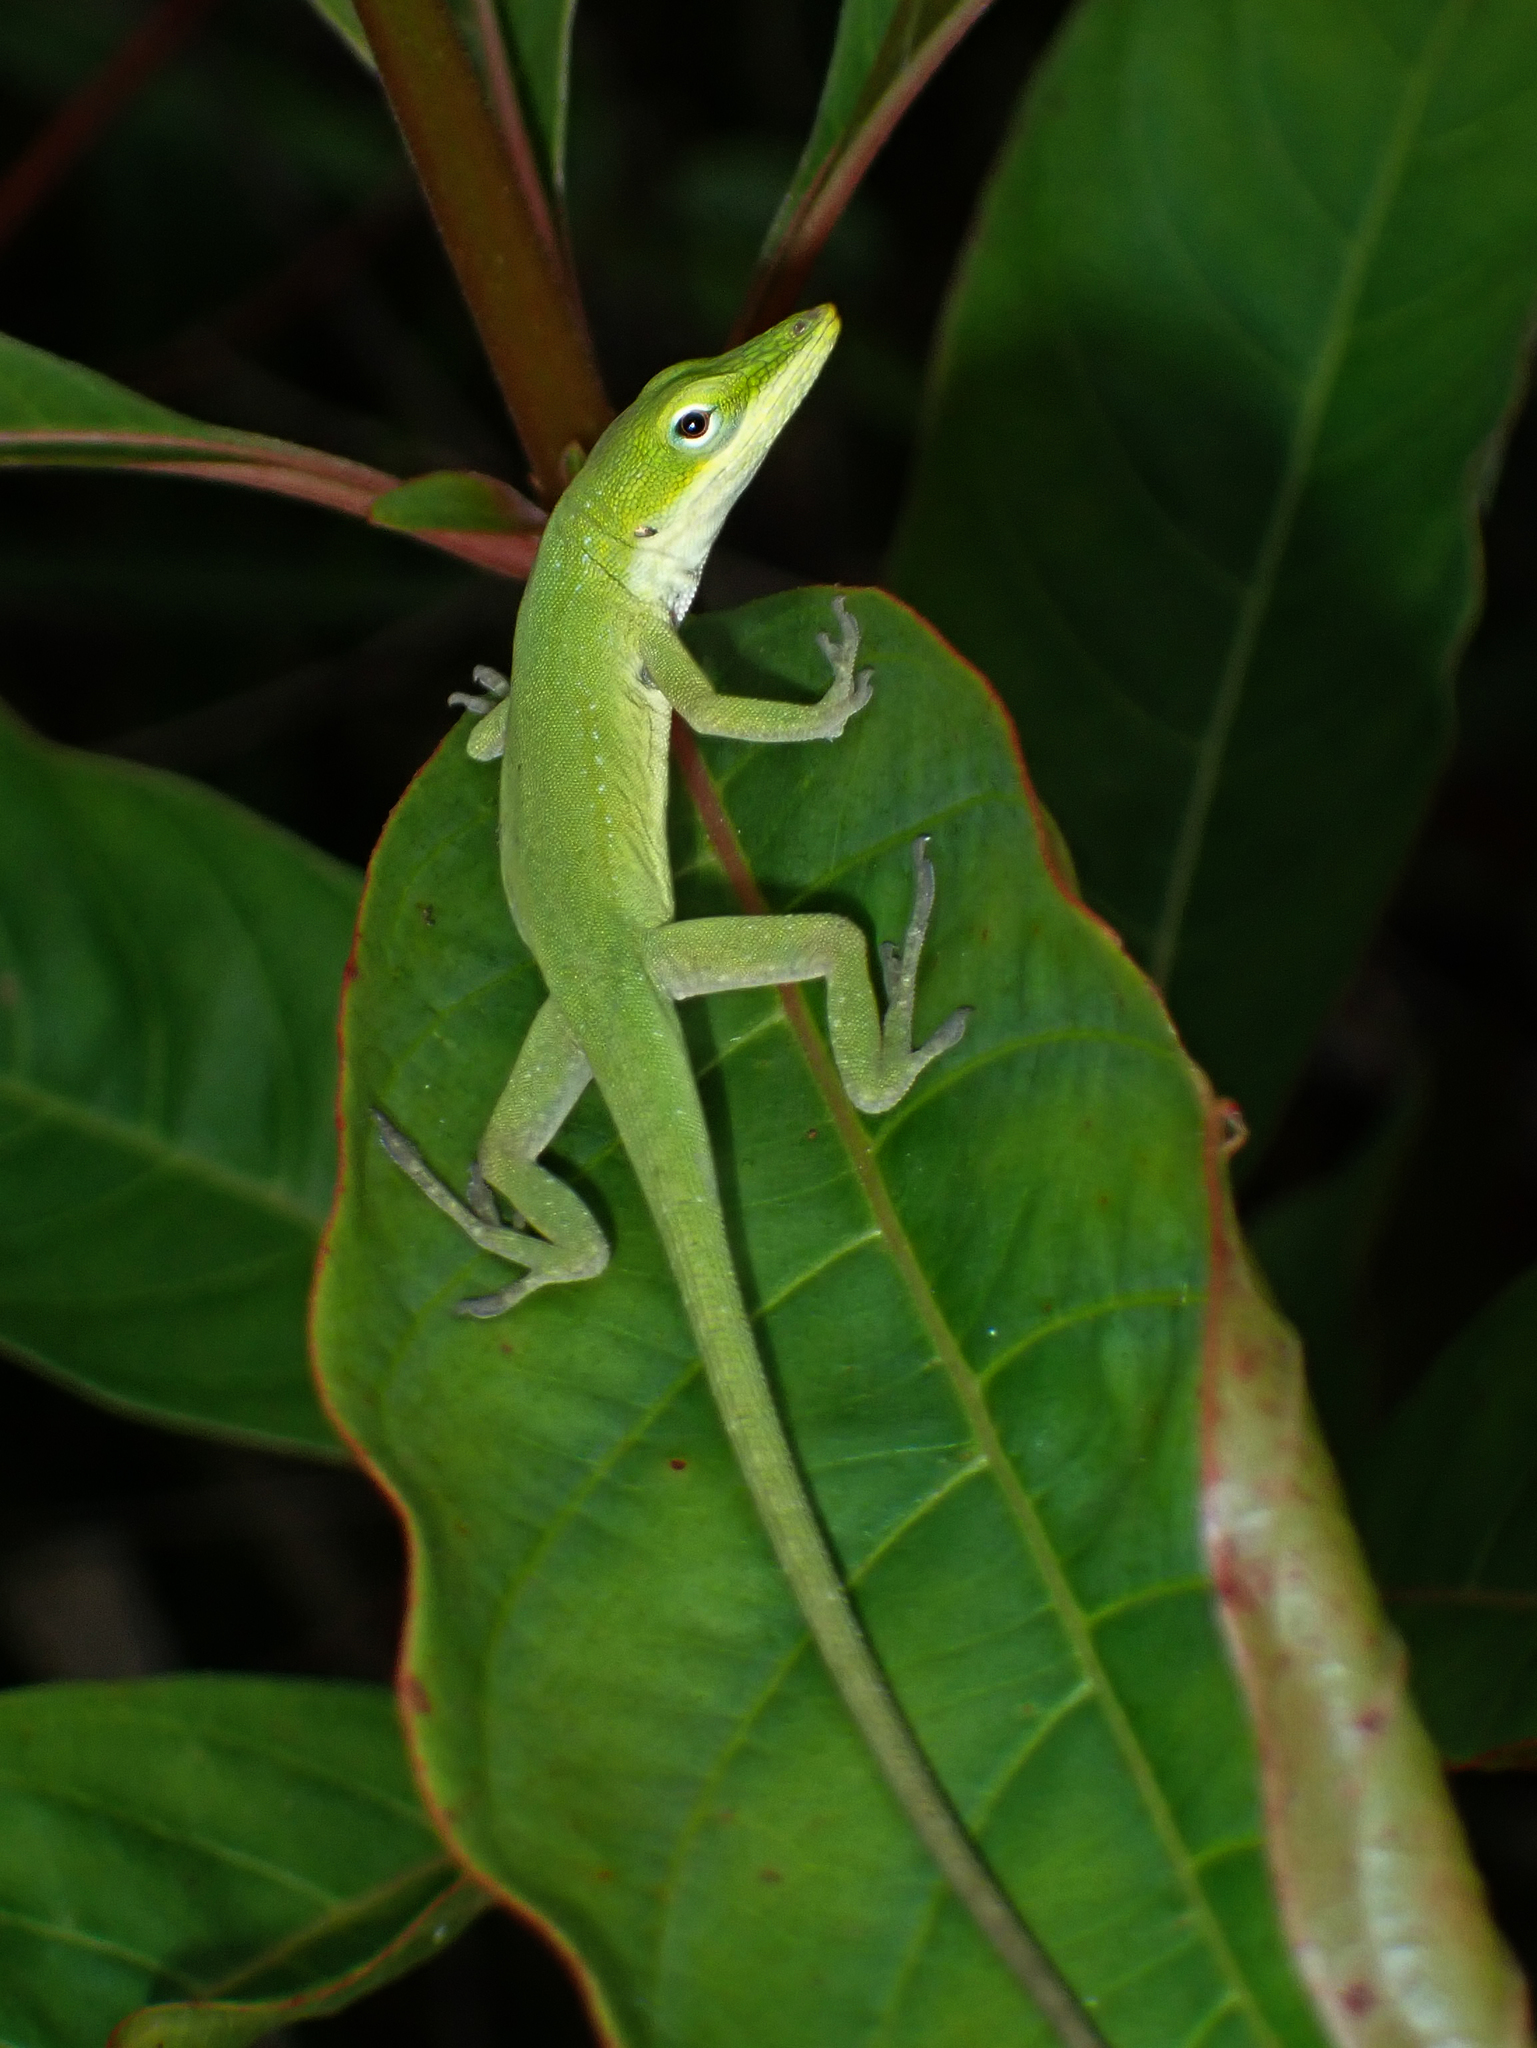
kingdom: Animalia
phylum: Chordata
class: Squamata
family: Dactyloidae
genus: Anolis
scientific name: Anolis carolinensis
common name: Green anole
